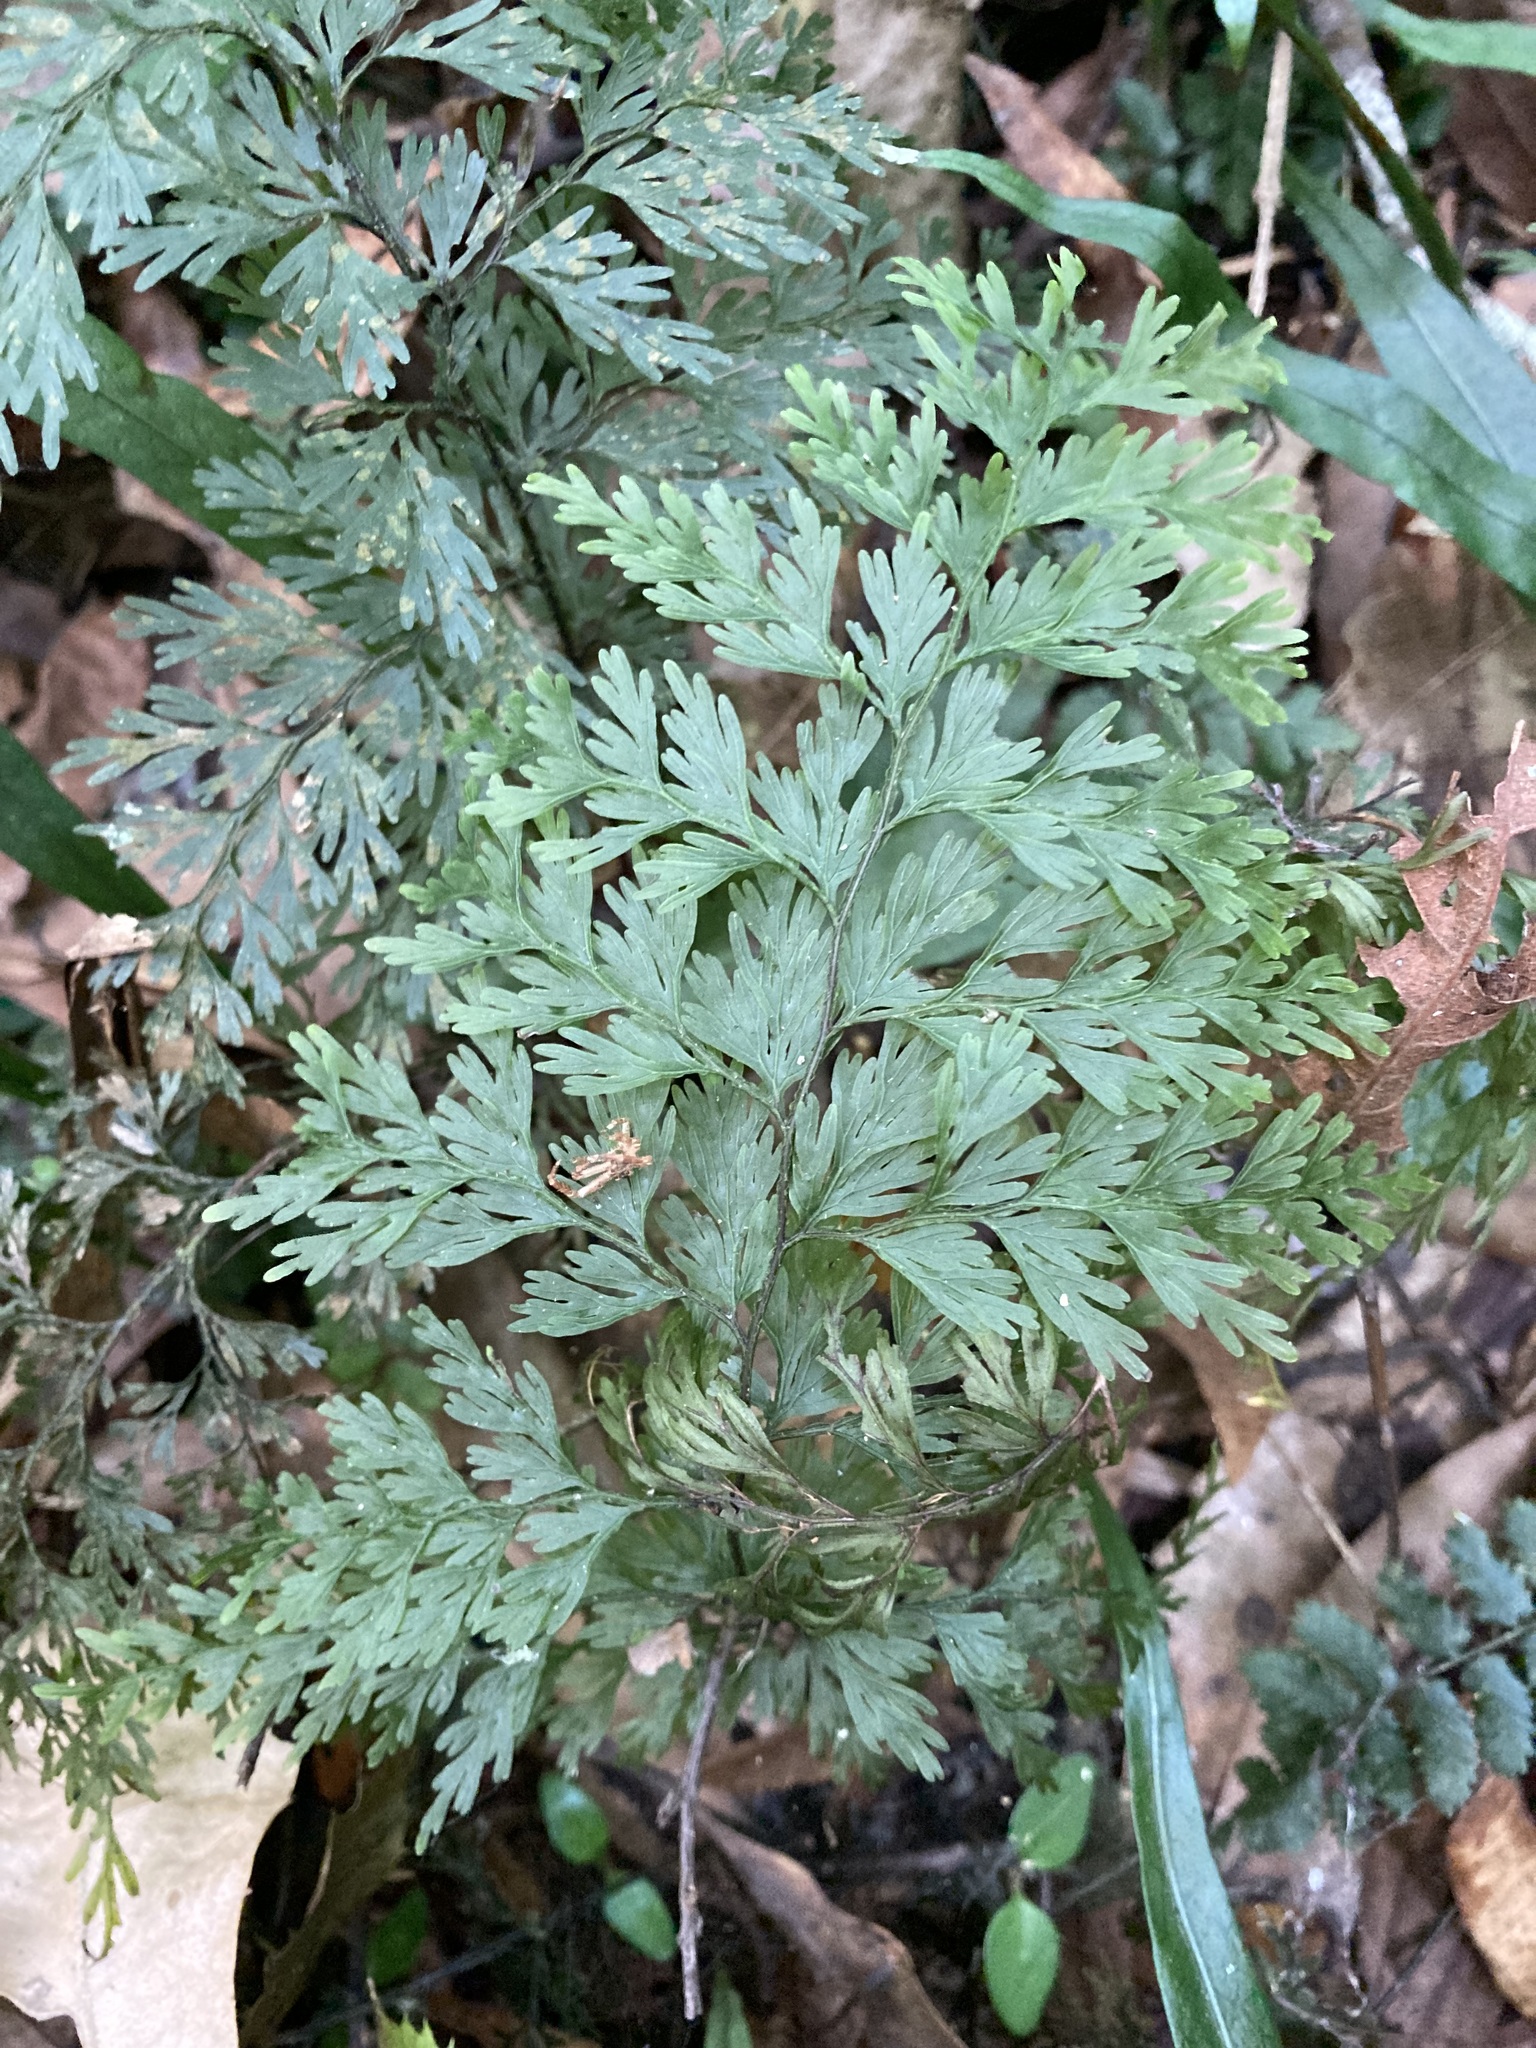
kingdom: Plantae
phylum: Tracheophyta
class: Polypodiopsida
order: Hymenophyllales
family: Hymenophyllaceae
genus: Hymenophyllum
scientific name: Hymenophyllum demissum
